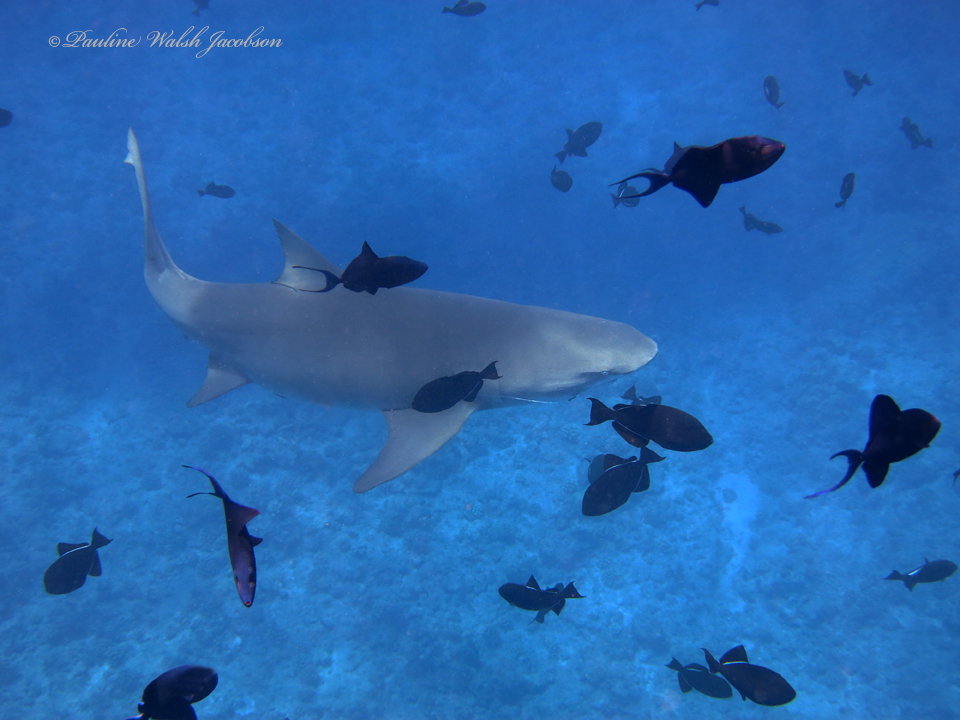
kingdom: Animalia
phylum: Chordata
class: Elasmobranchii
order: Carcharhiniformes
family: Carcharhinidae
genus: Negaprion
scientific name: Negaprion acutidens
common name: Lemon shark
